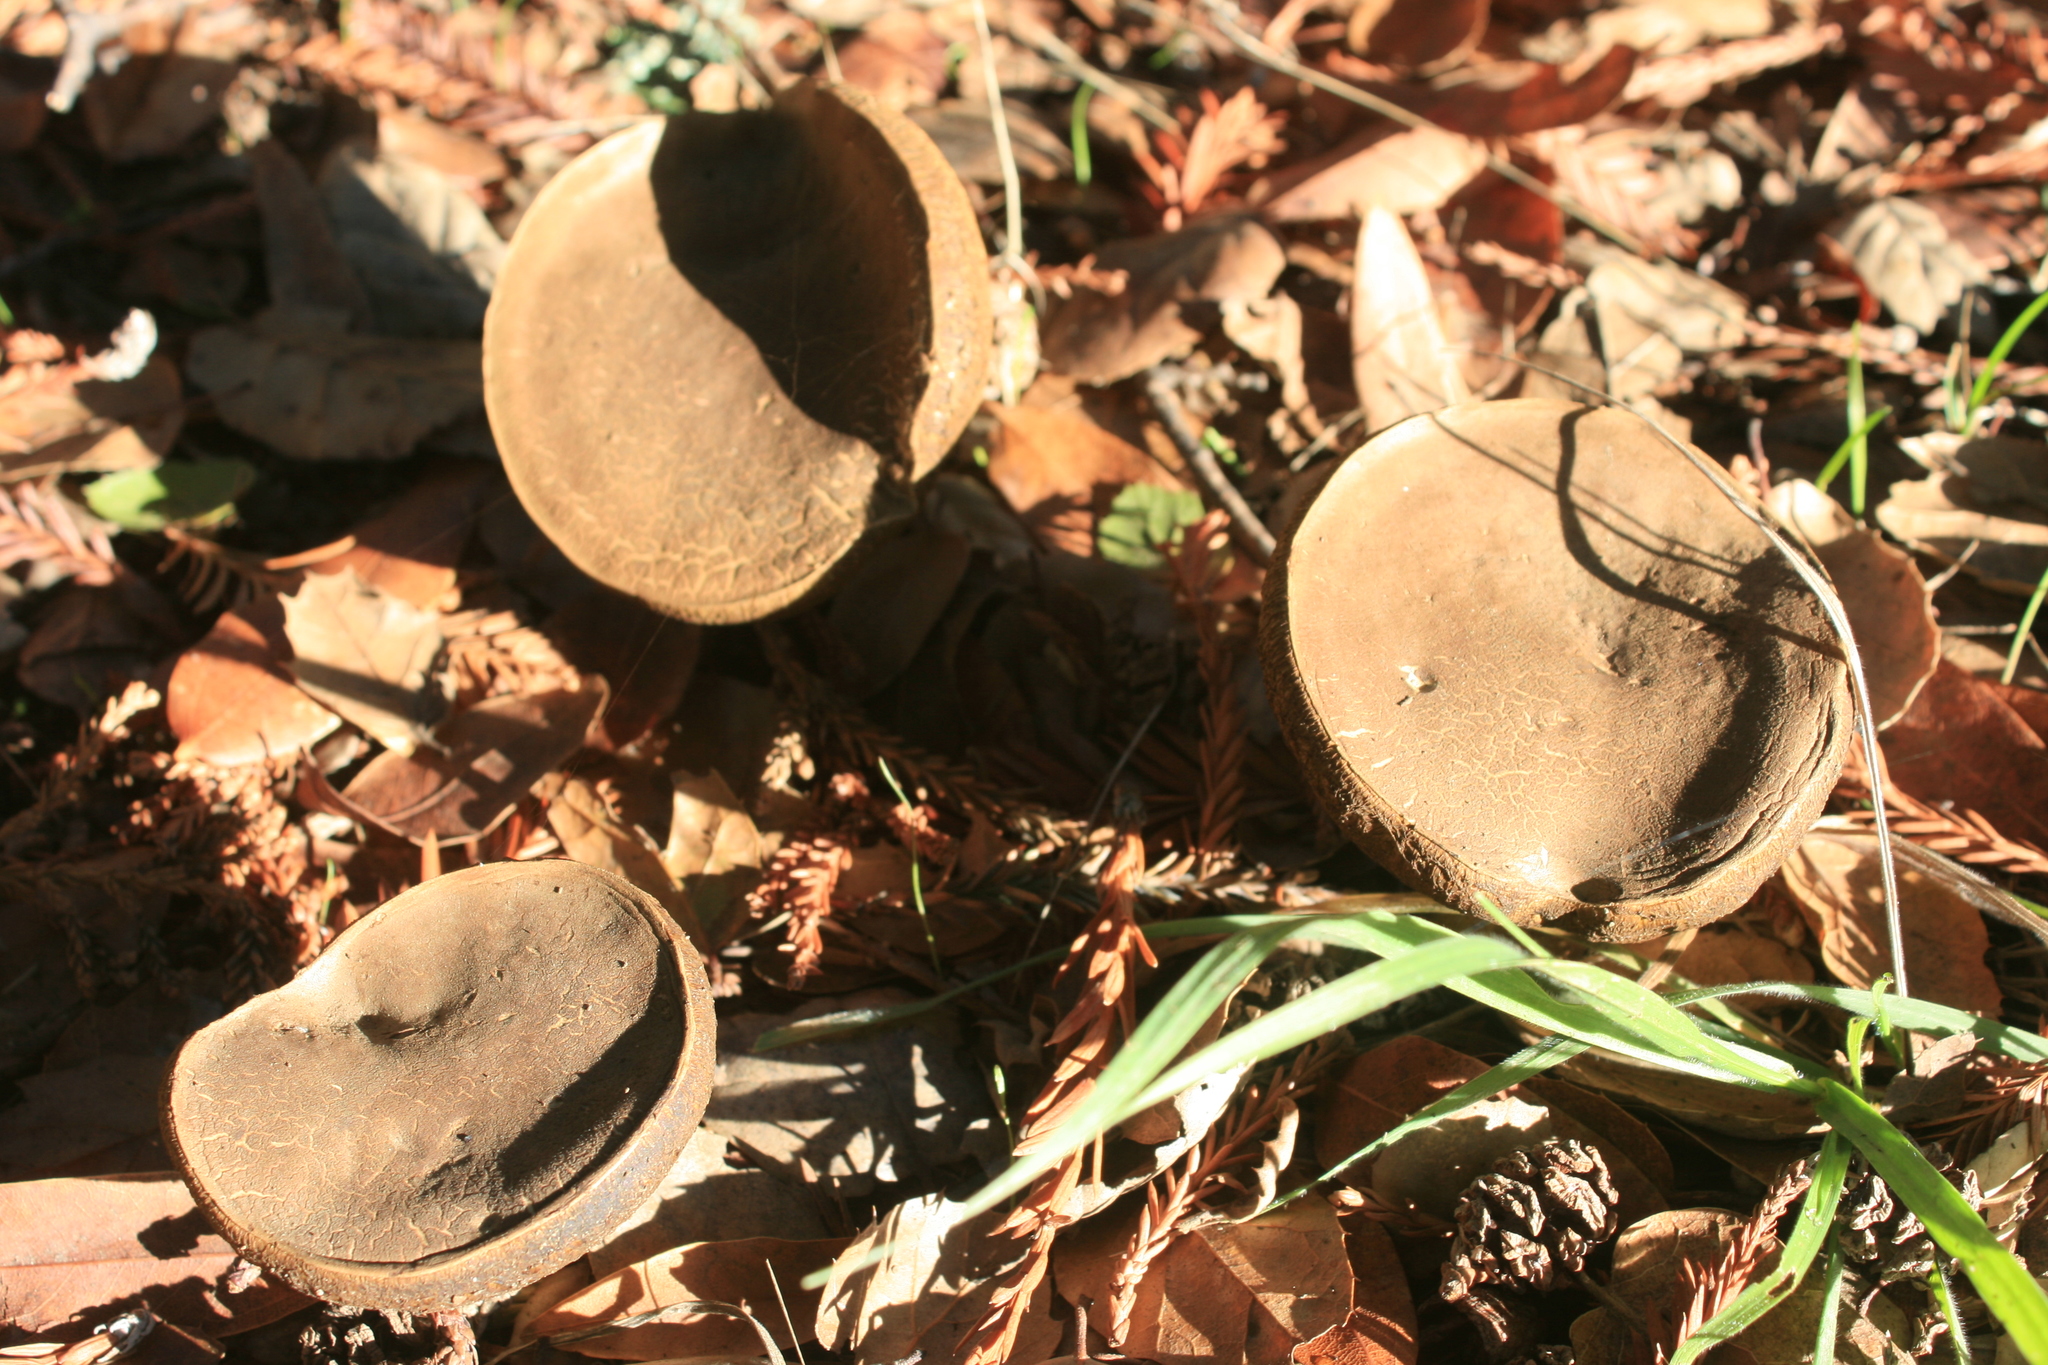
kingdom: Fungi
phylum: Basidiomycota
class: Agaricomycetes
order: Boletales
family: Boletaceae
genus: Xerocomus
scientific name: Xerocomus subtomentosus
